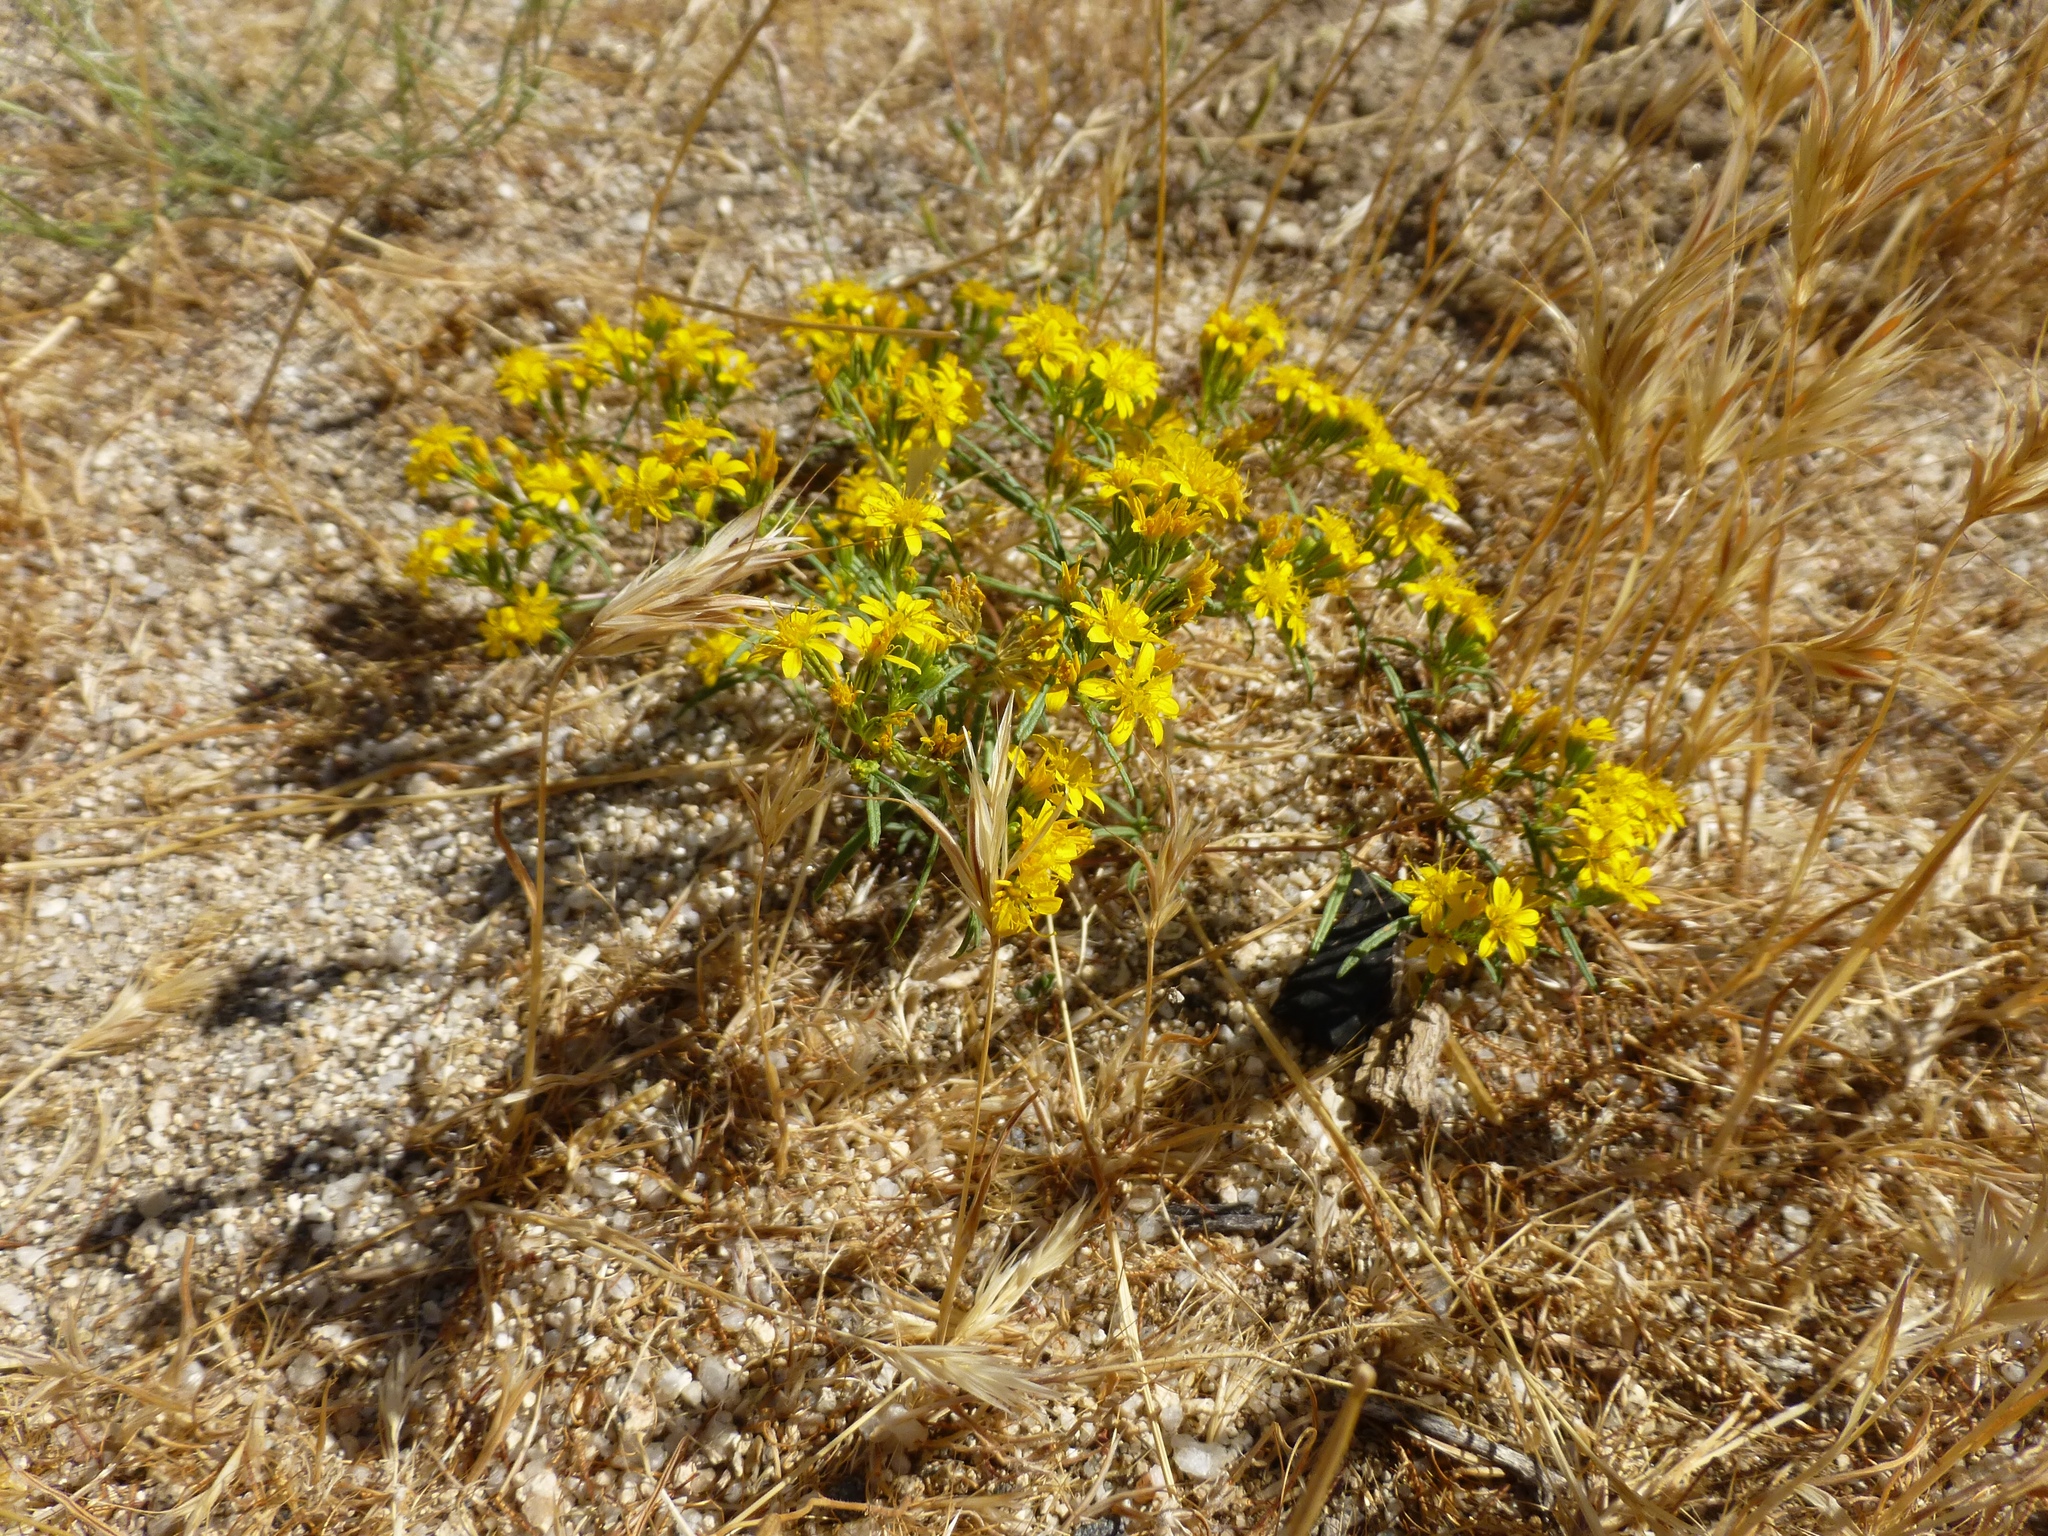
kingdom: Plantae
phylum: Tracheophyta
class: Magnoliopsida
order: Asterales
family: Asteraceae
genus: Pectis
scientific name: Pectis papposa
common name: Many-bristle chinchweed
